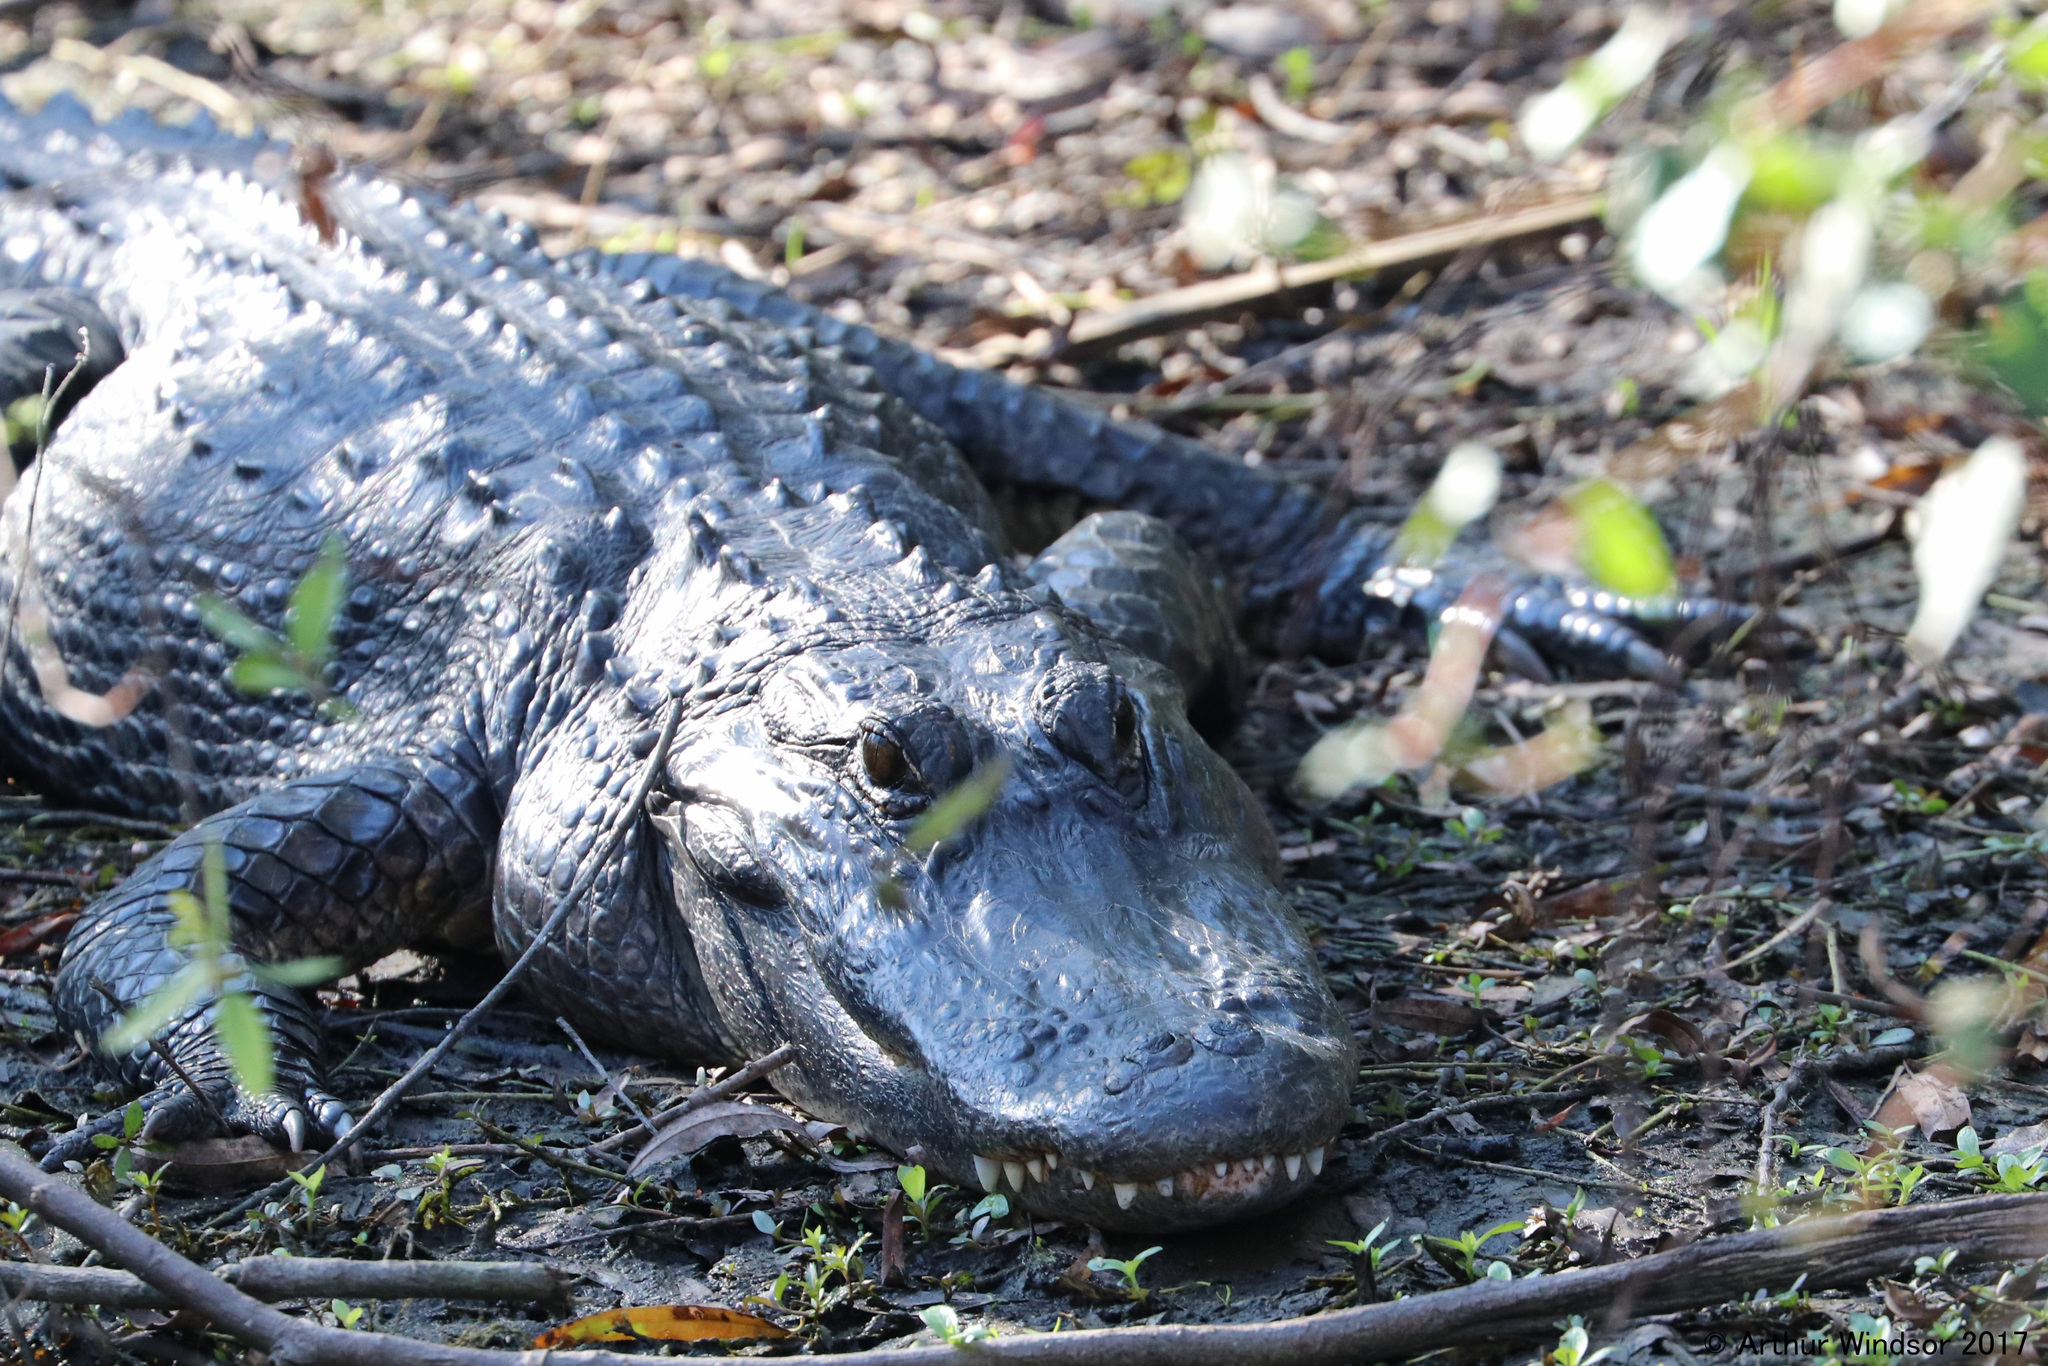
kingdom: Animalia
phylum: Chordata
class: Crocodylia
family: Alligatoridae
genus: Alligator
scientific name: Alligator mississippiensis
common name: American alligator
